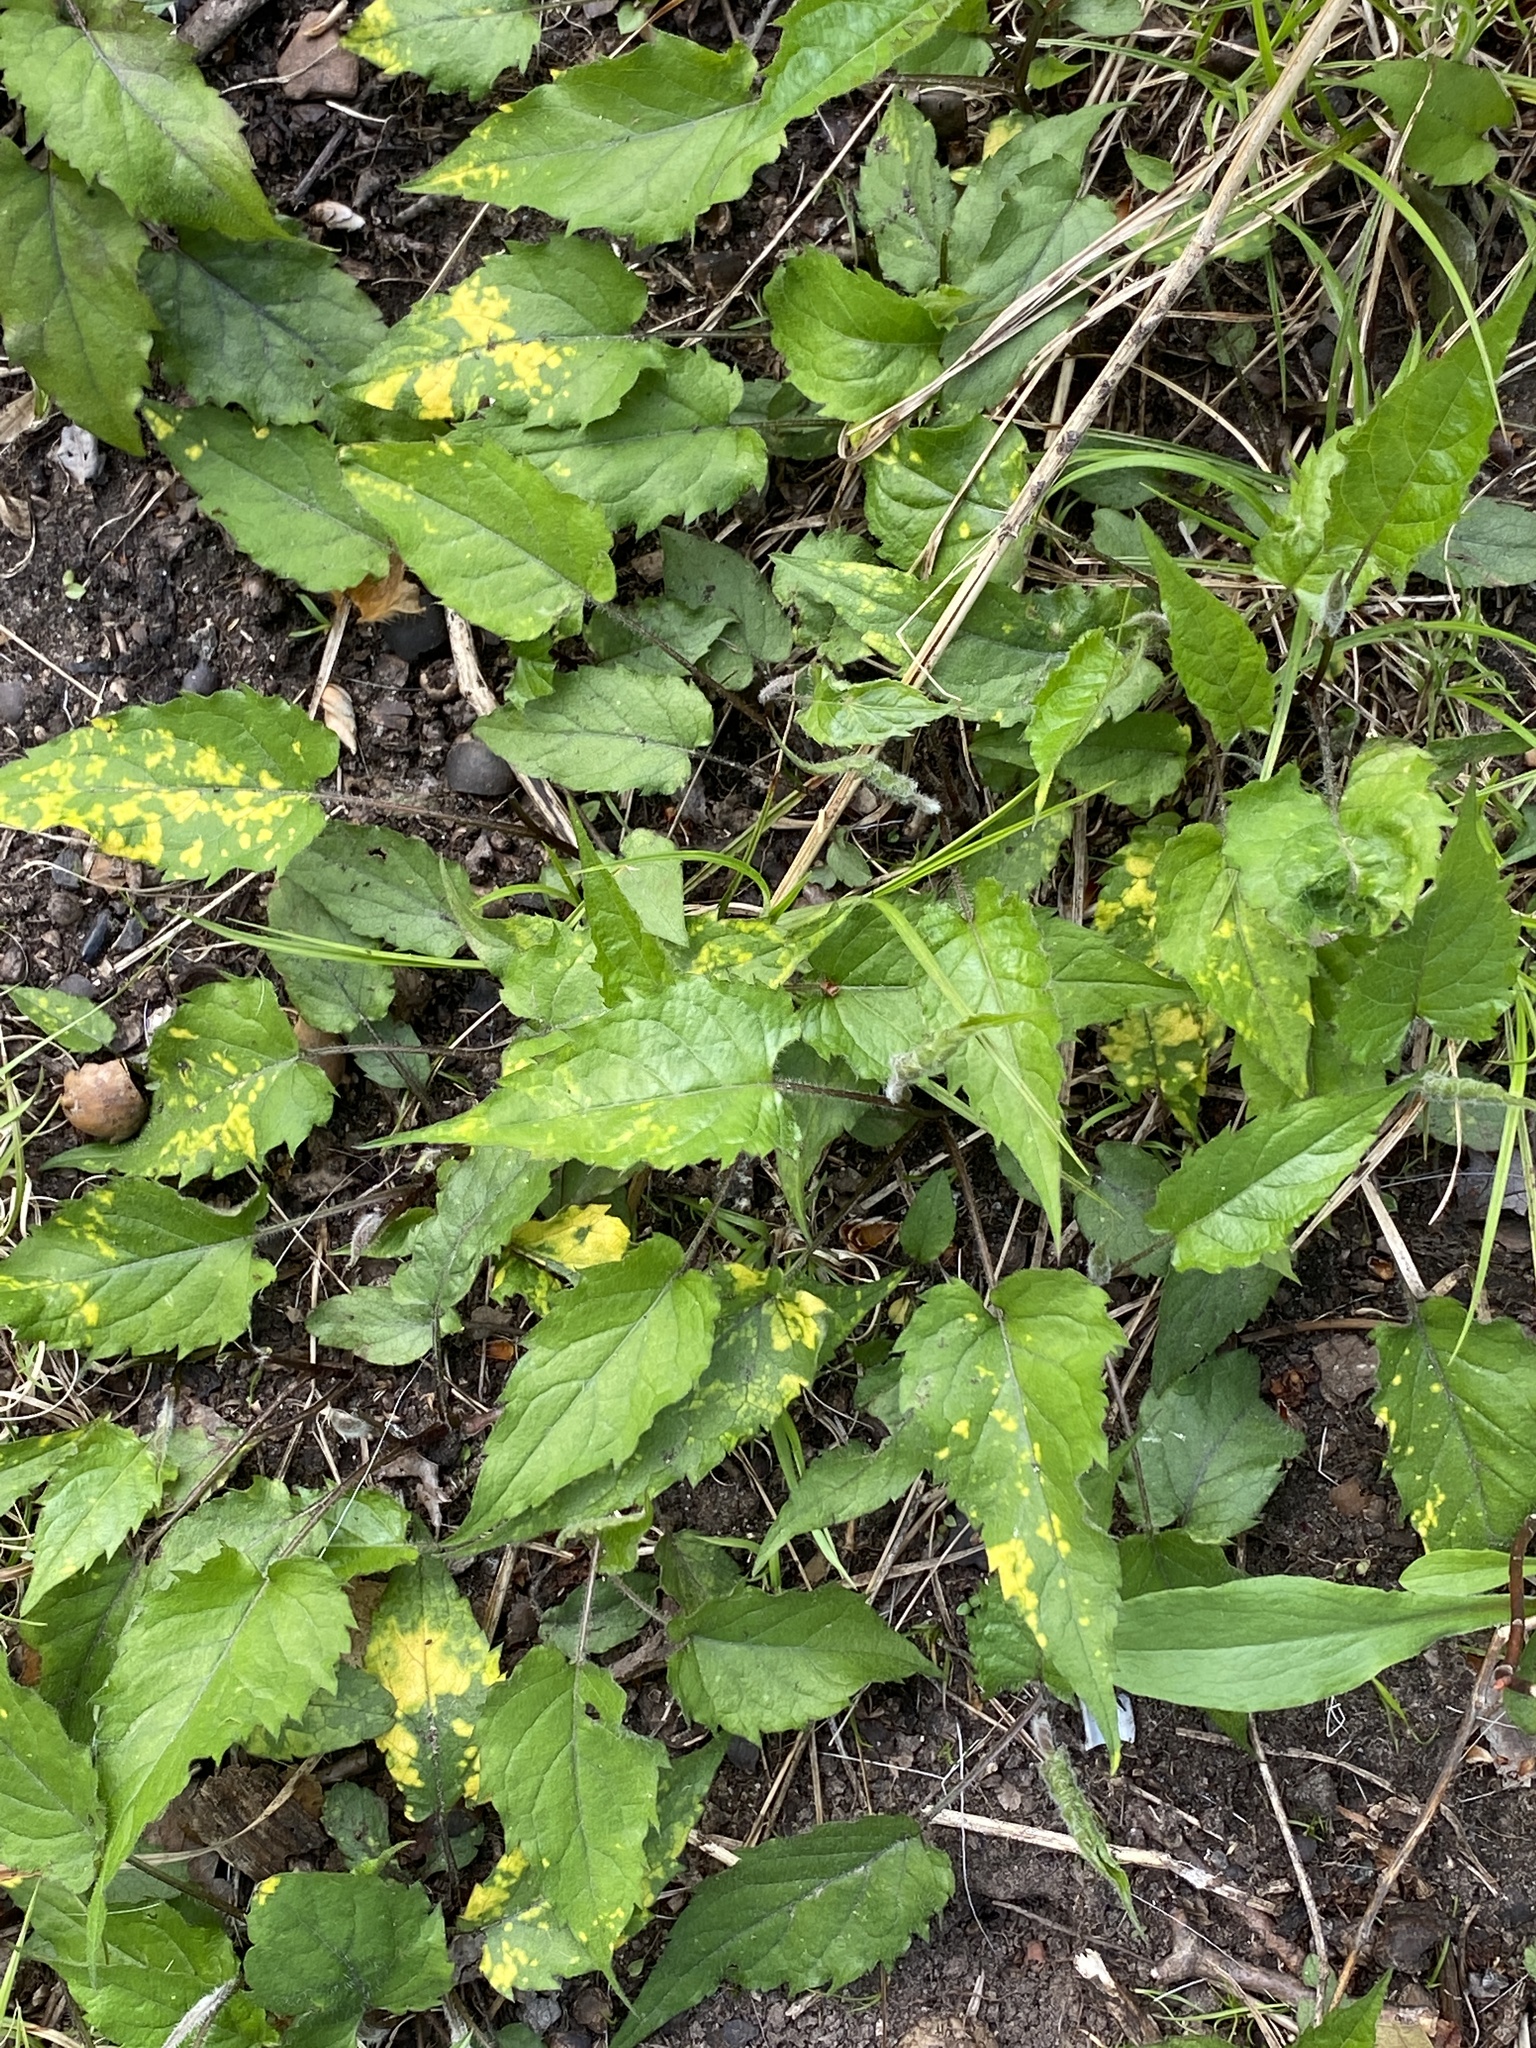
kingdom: Plantae
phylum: Tracheophyta
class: Magnoliopsida
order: Asterales
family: Asteraceae
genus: Eurybia
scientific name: Eurybia divaricata
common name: White wood aster
